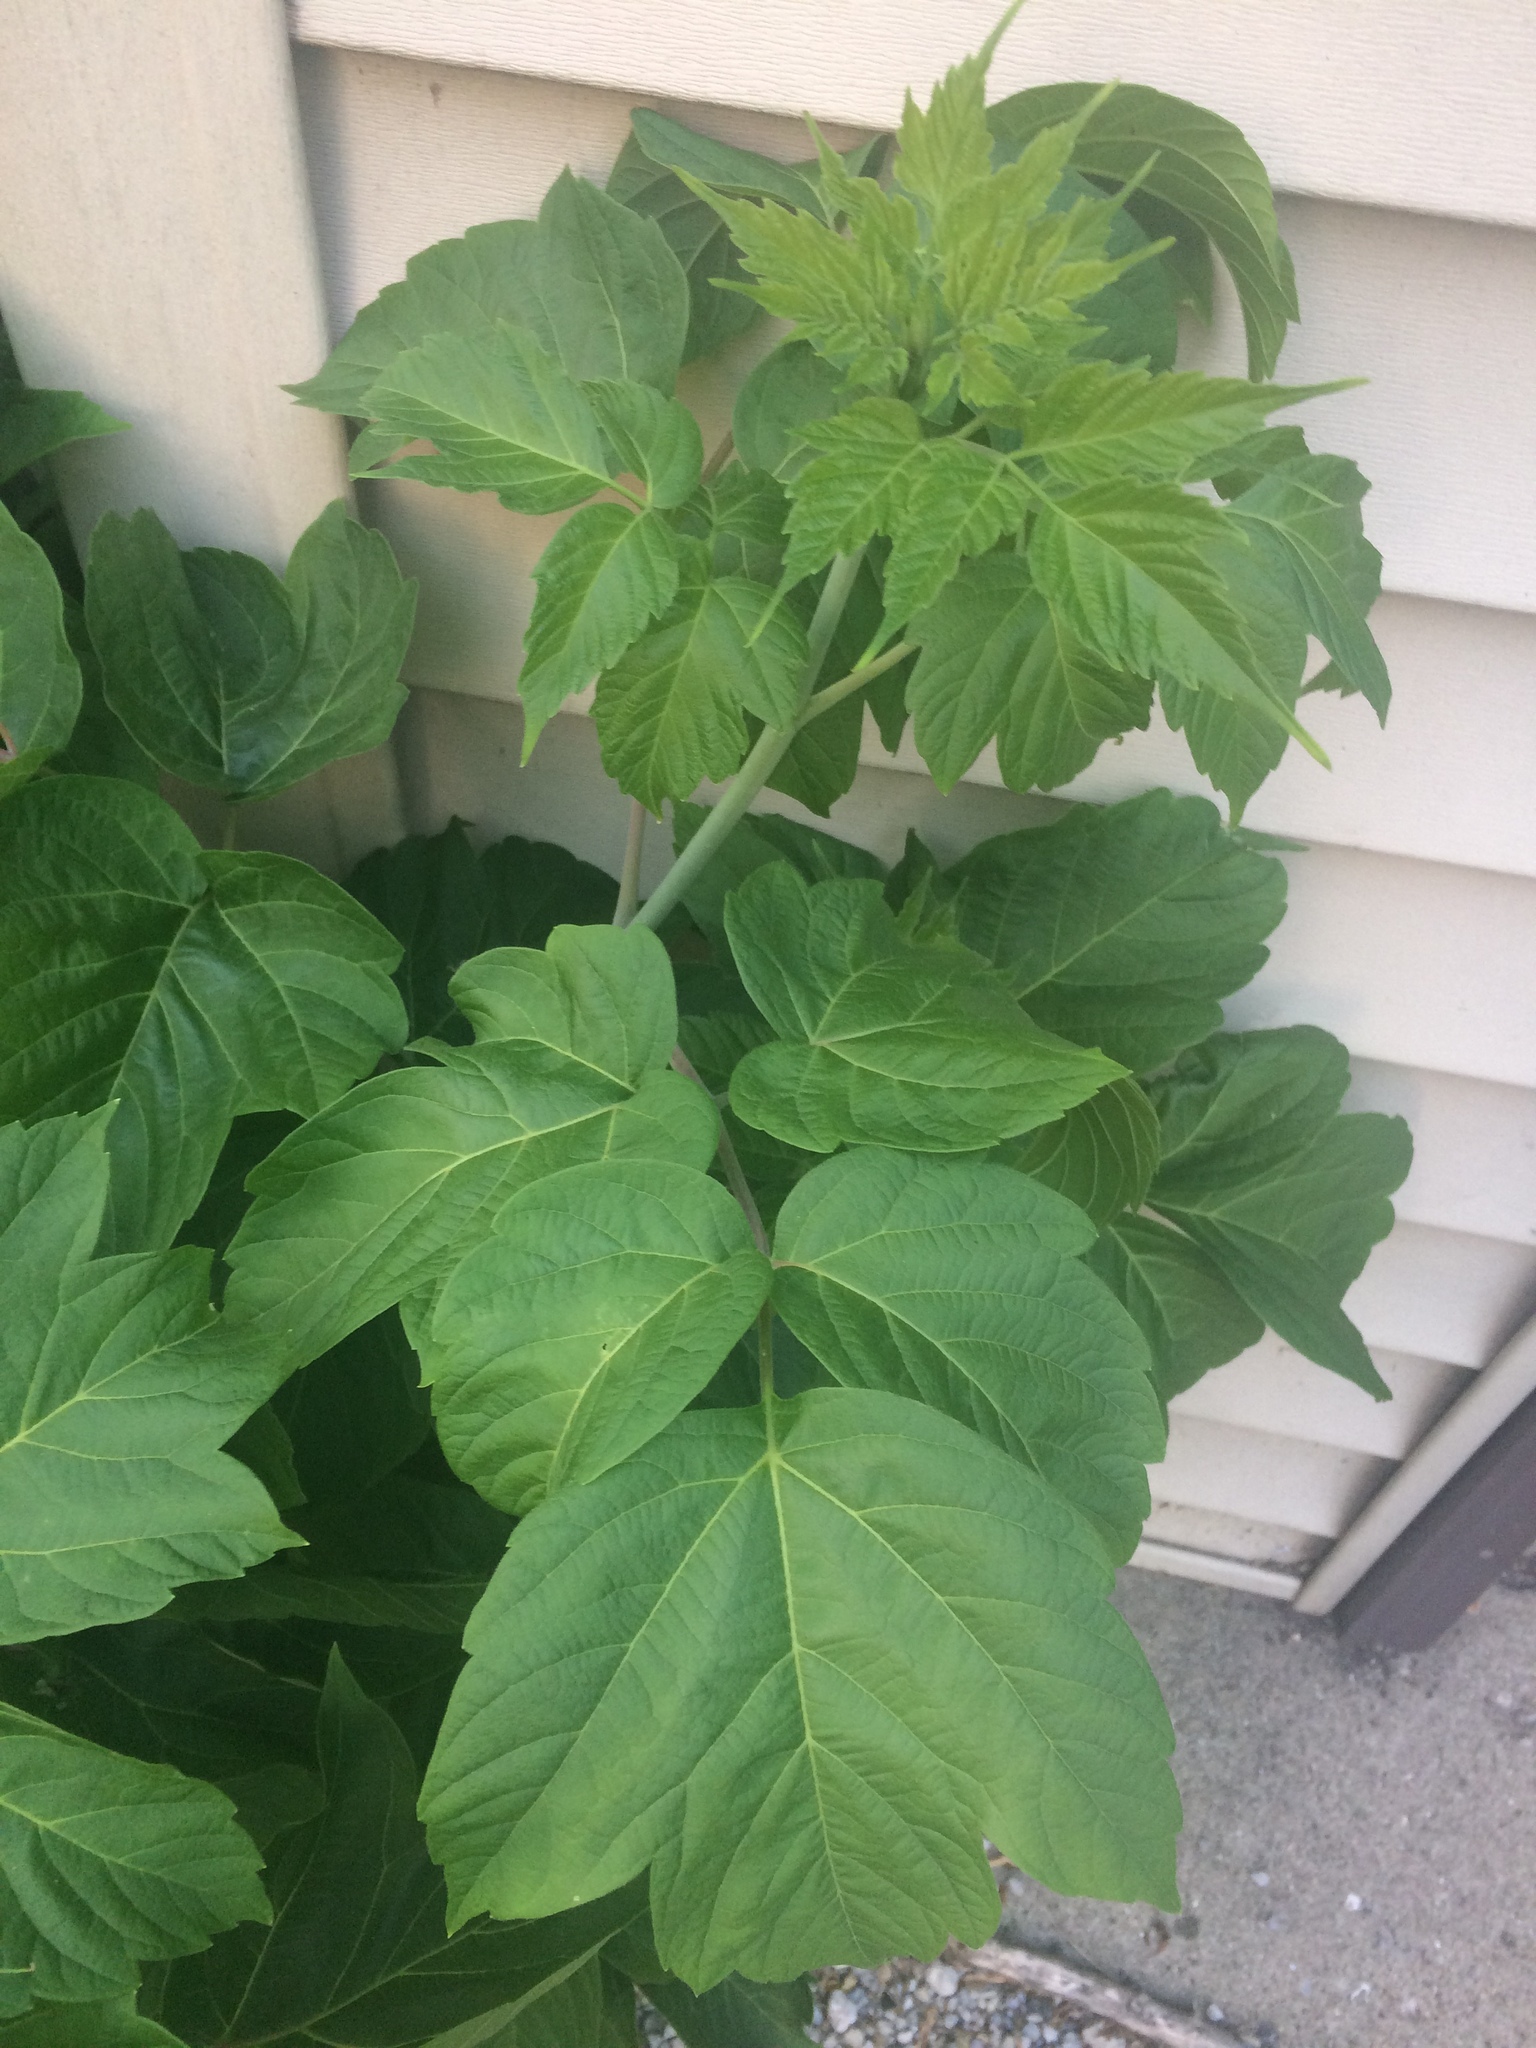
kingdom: Plantae
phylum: Tracheophyta
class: Magnoliopsida
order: Sapindales
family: Sapindaceae
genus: Acer
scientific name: Acer negundo
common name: Ashleaf maple
